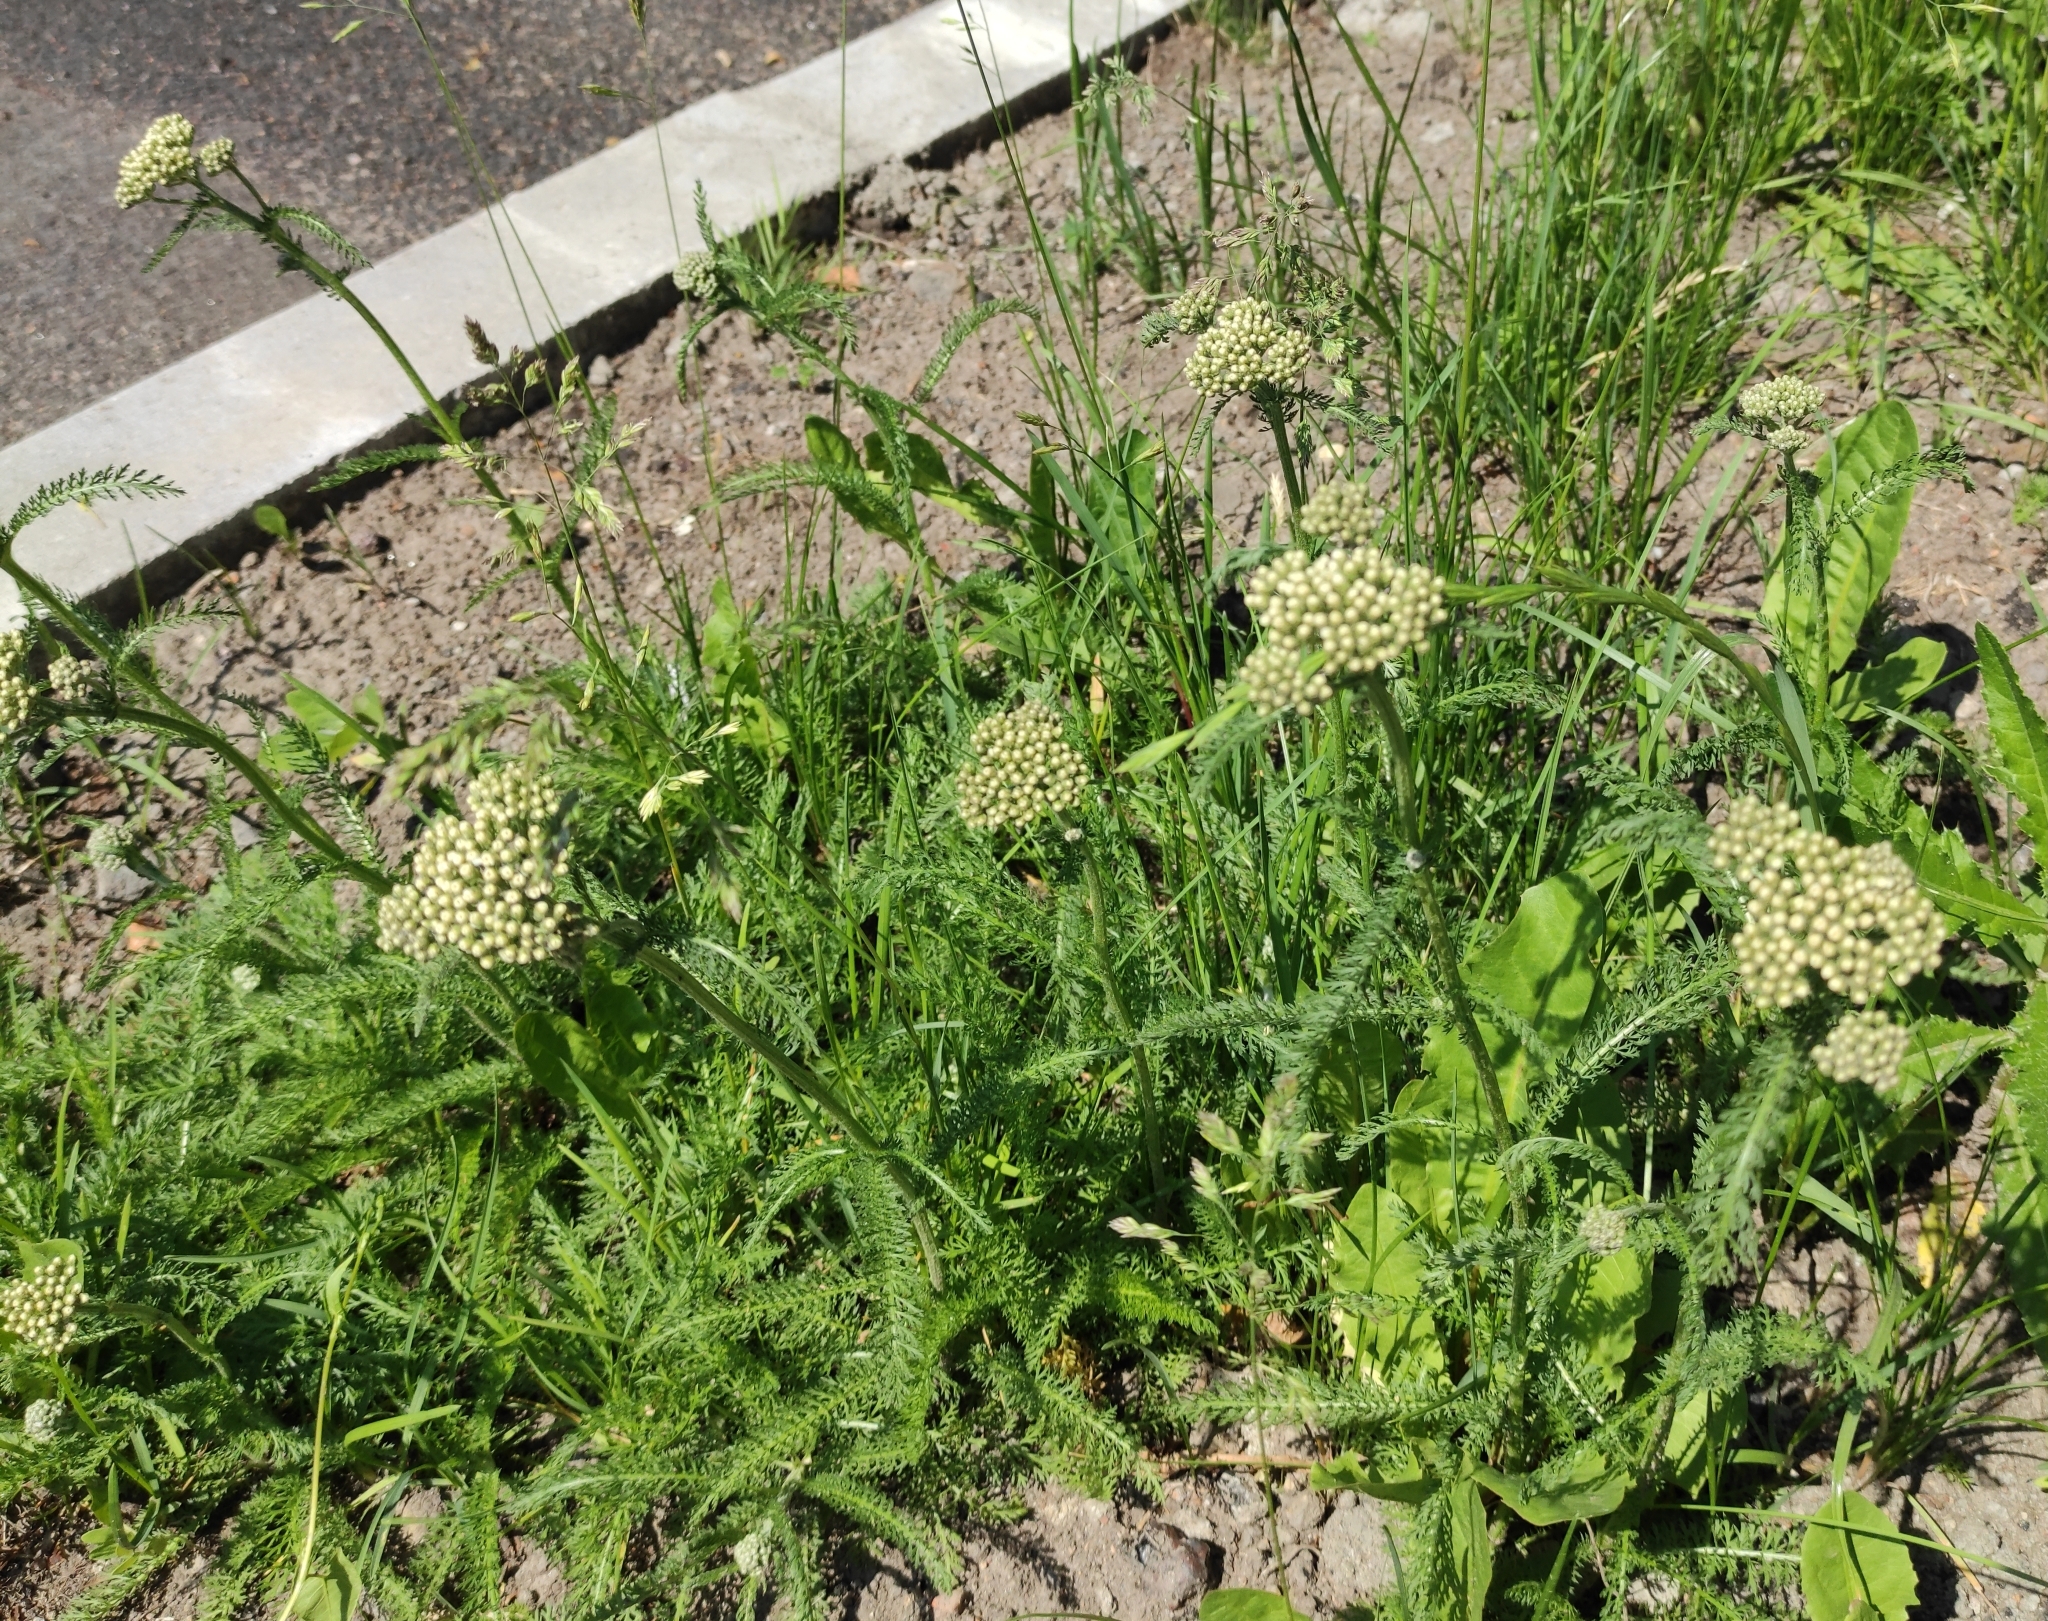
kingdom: Plantae
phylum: Tracheophyta
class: Magnoliopsida
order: Asterales
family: Asteraceae
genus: Achillea
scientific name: Achillea millefolium
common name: Yarrow
